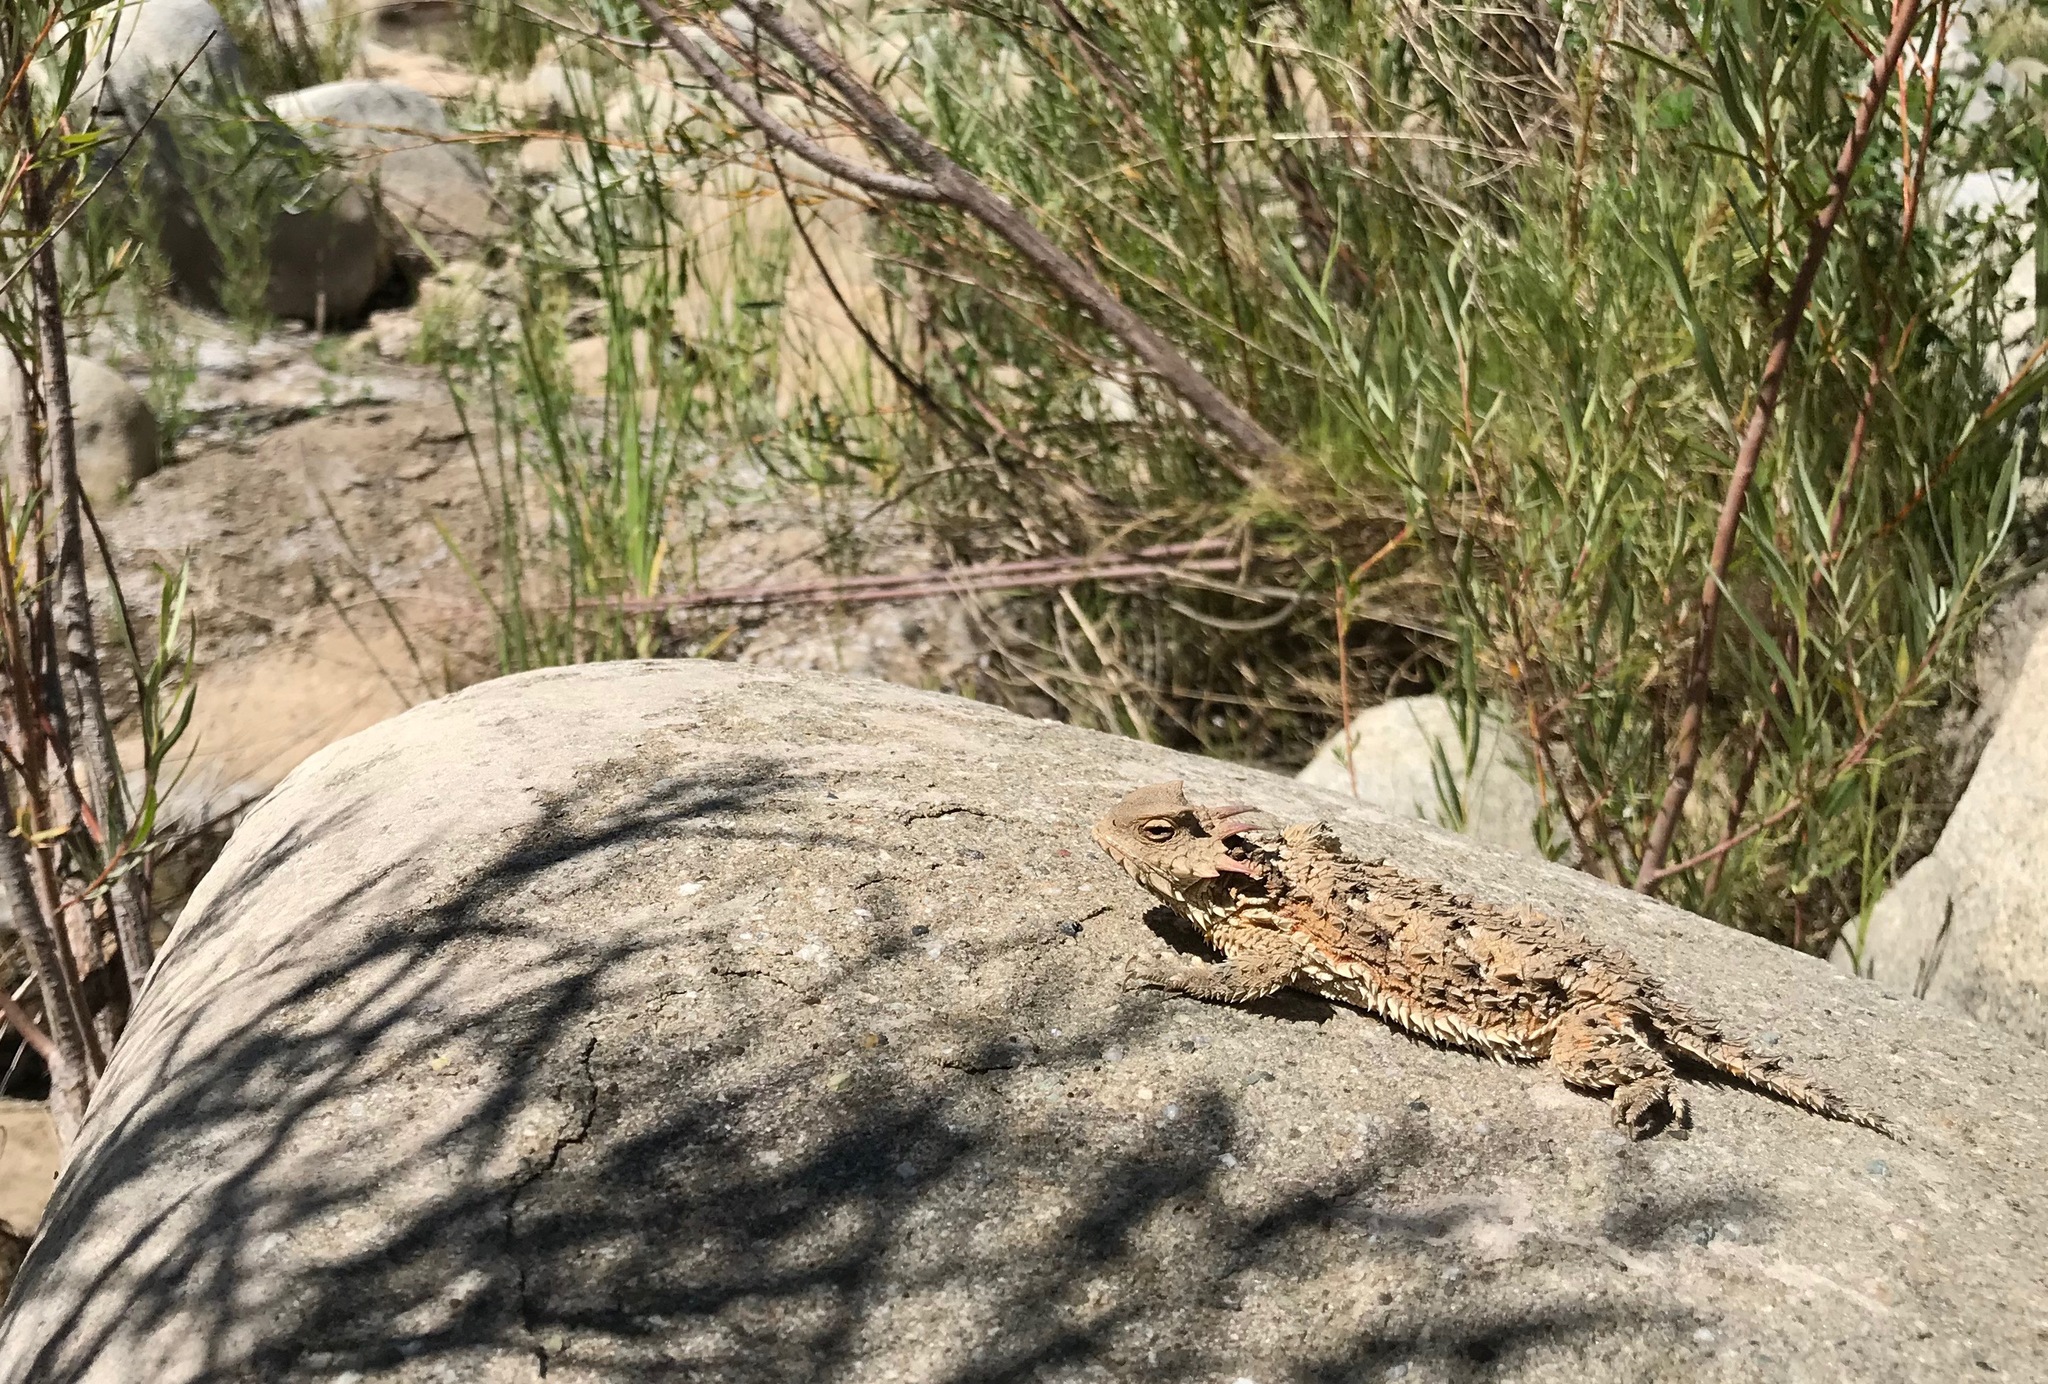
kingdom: Animalia
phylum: Chordata
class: Squamata
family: Phrynosomatidae
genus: Phrynosoma
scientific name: Phrynosoma blainvillii
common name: San diego horned lizard
